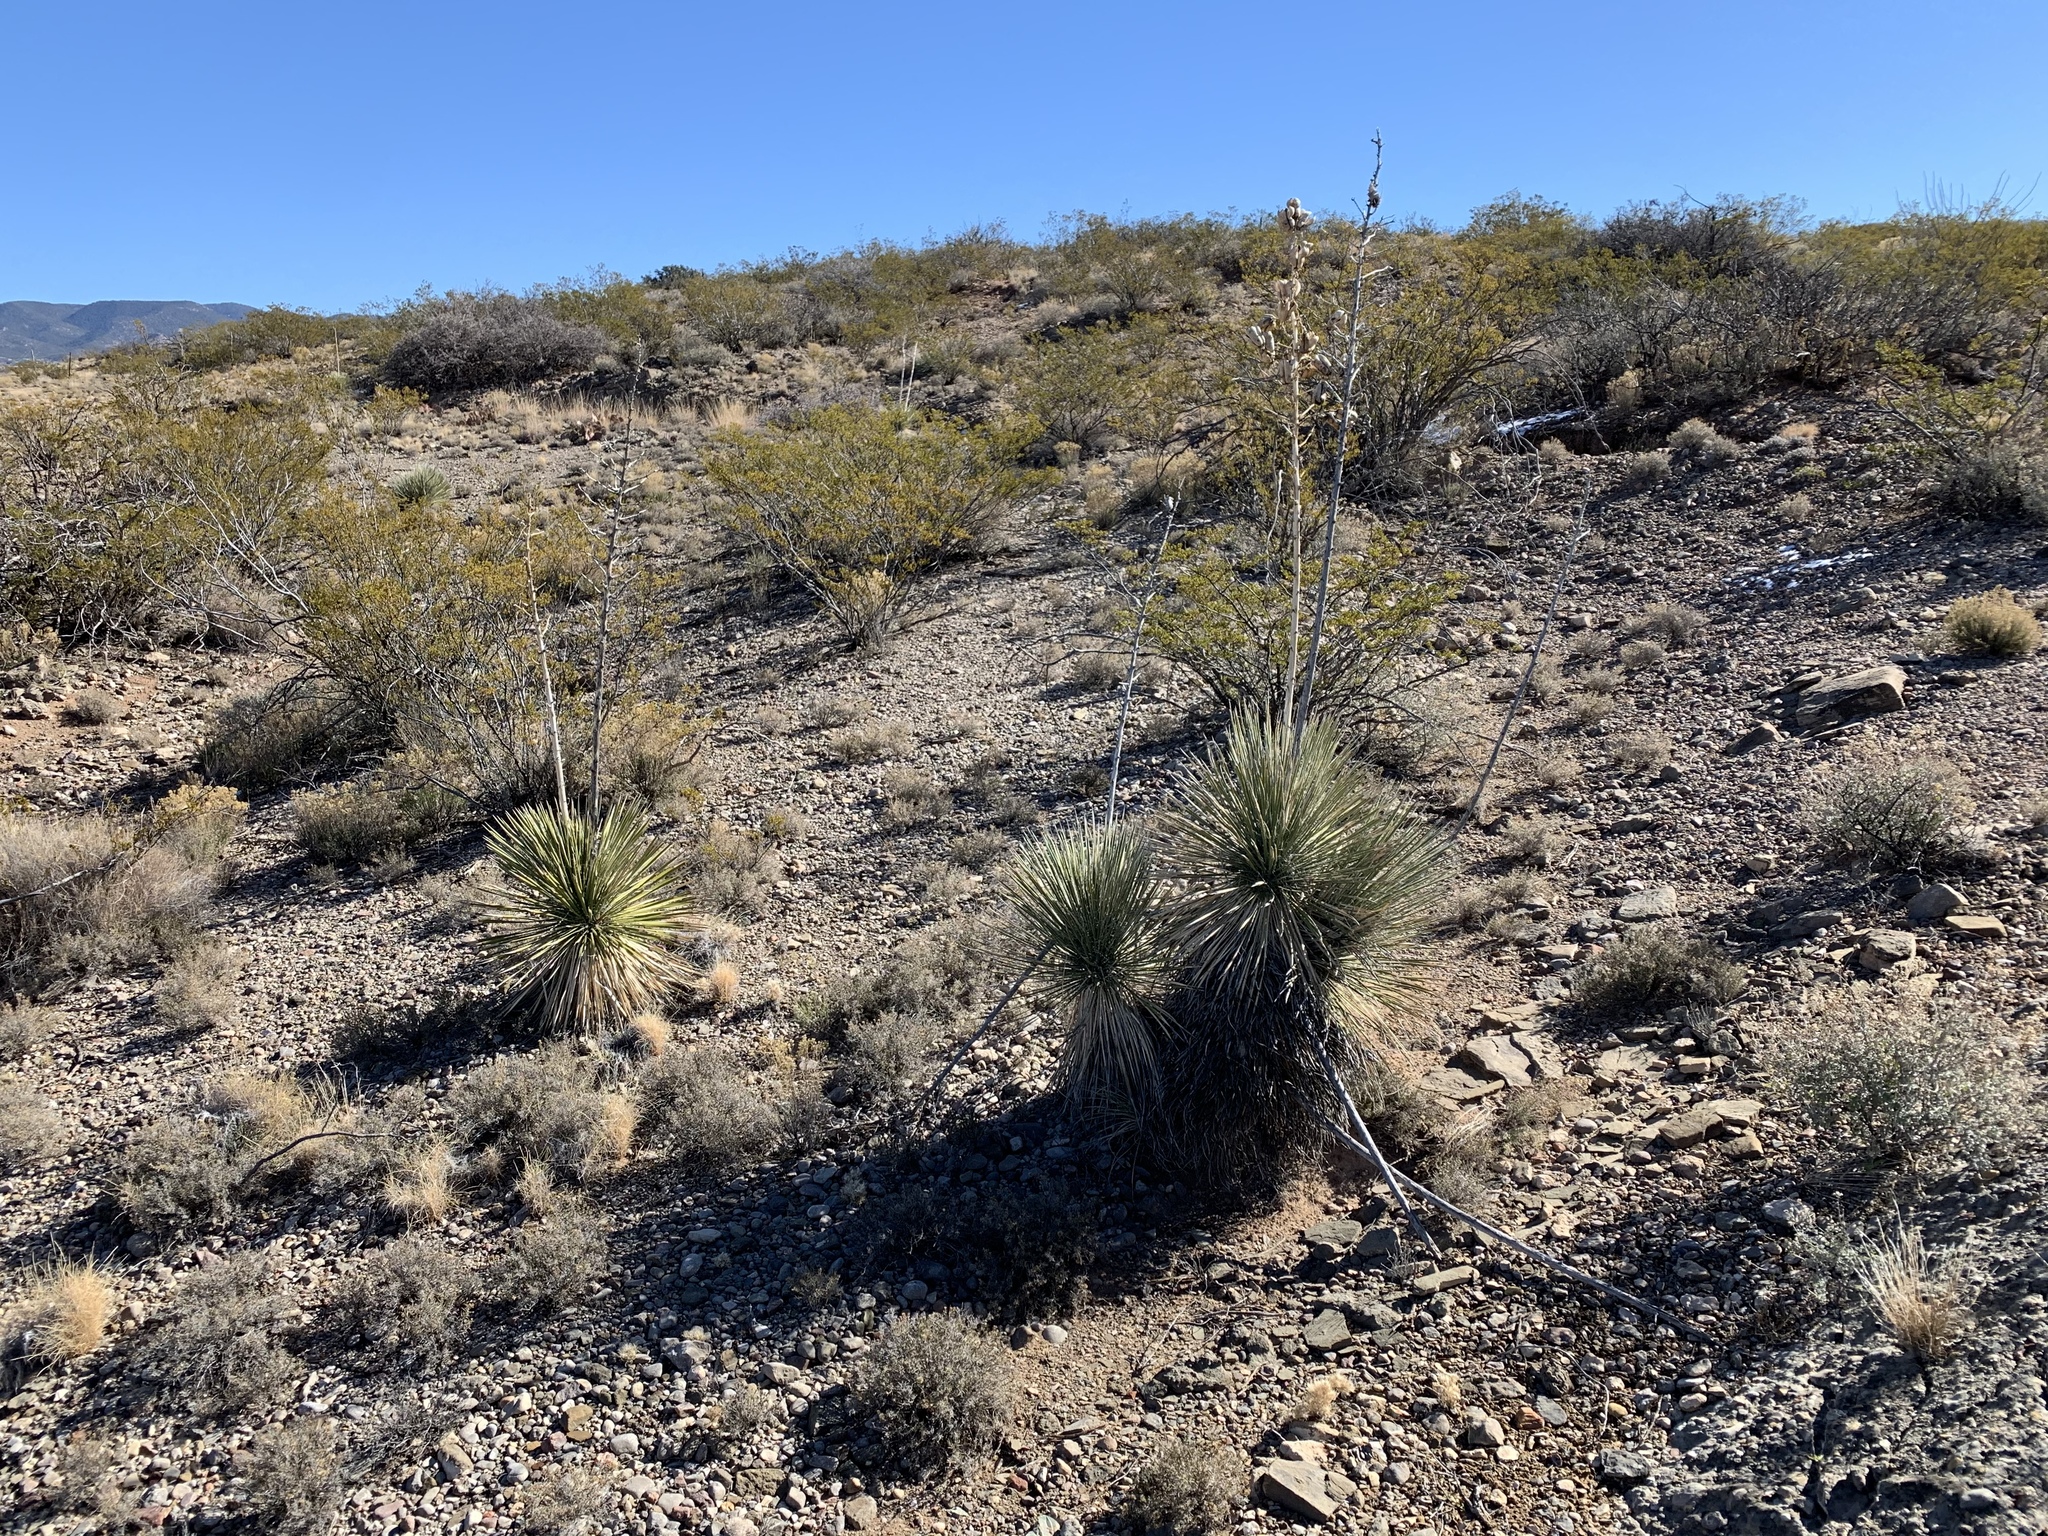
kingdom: Plantae
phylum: Tracheophyta
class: Liliopsida
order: Asparagales
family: Asparagaceae
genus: Yucca
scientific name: Yucca elata
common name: Palmella
